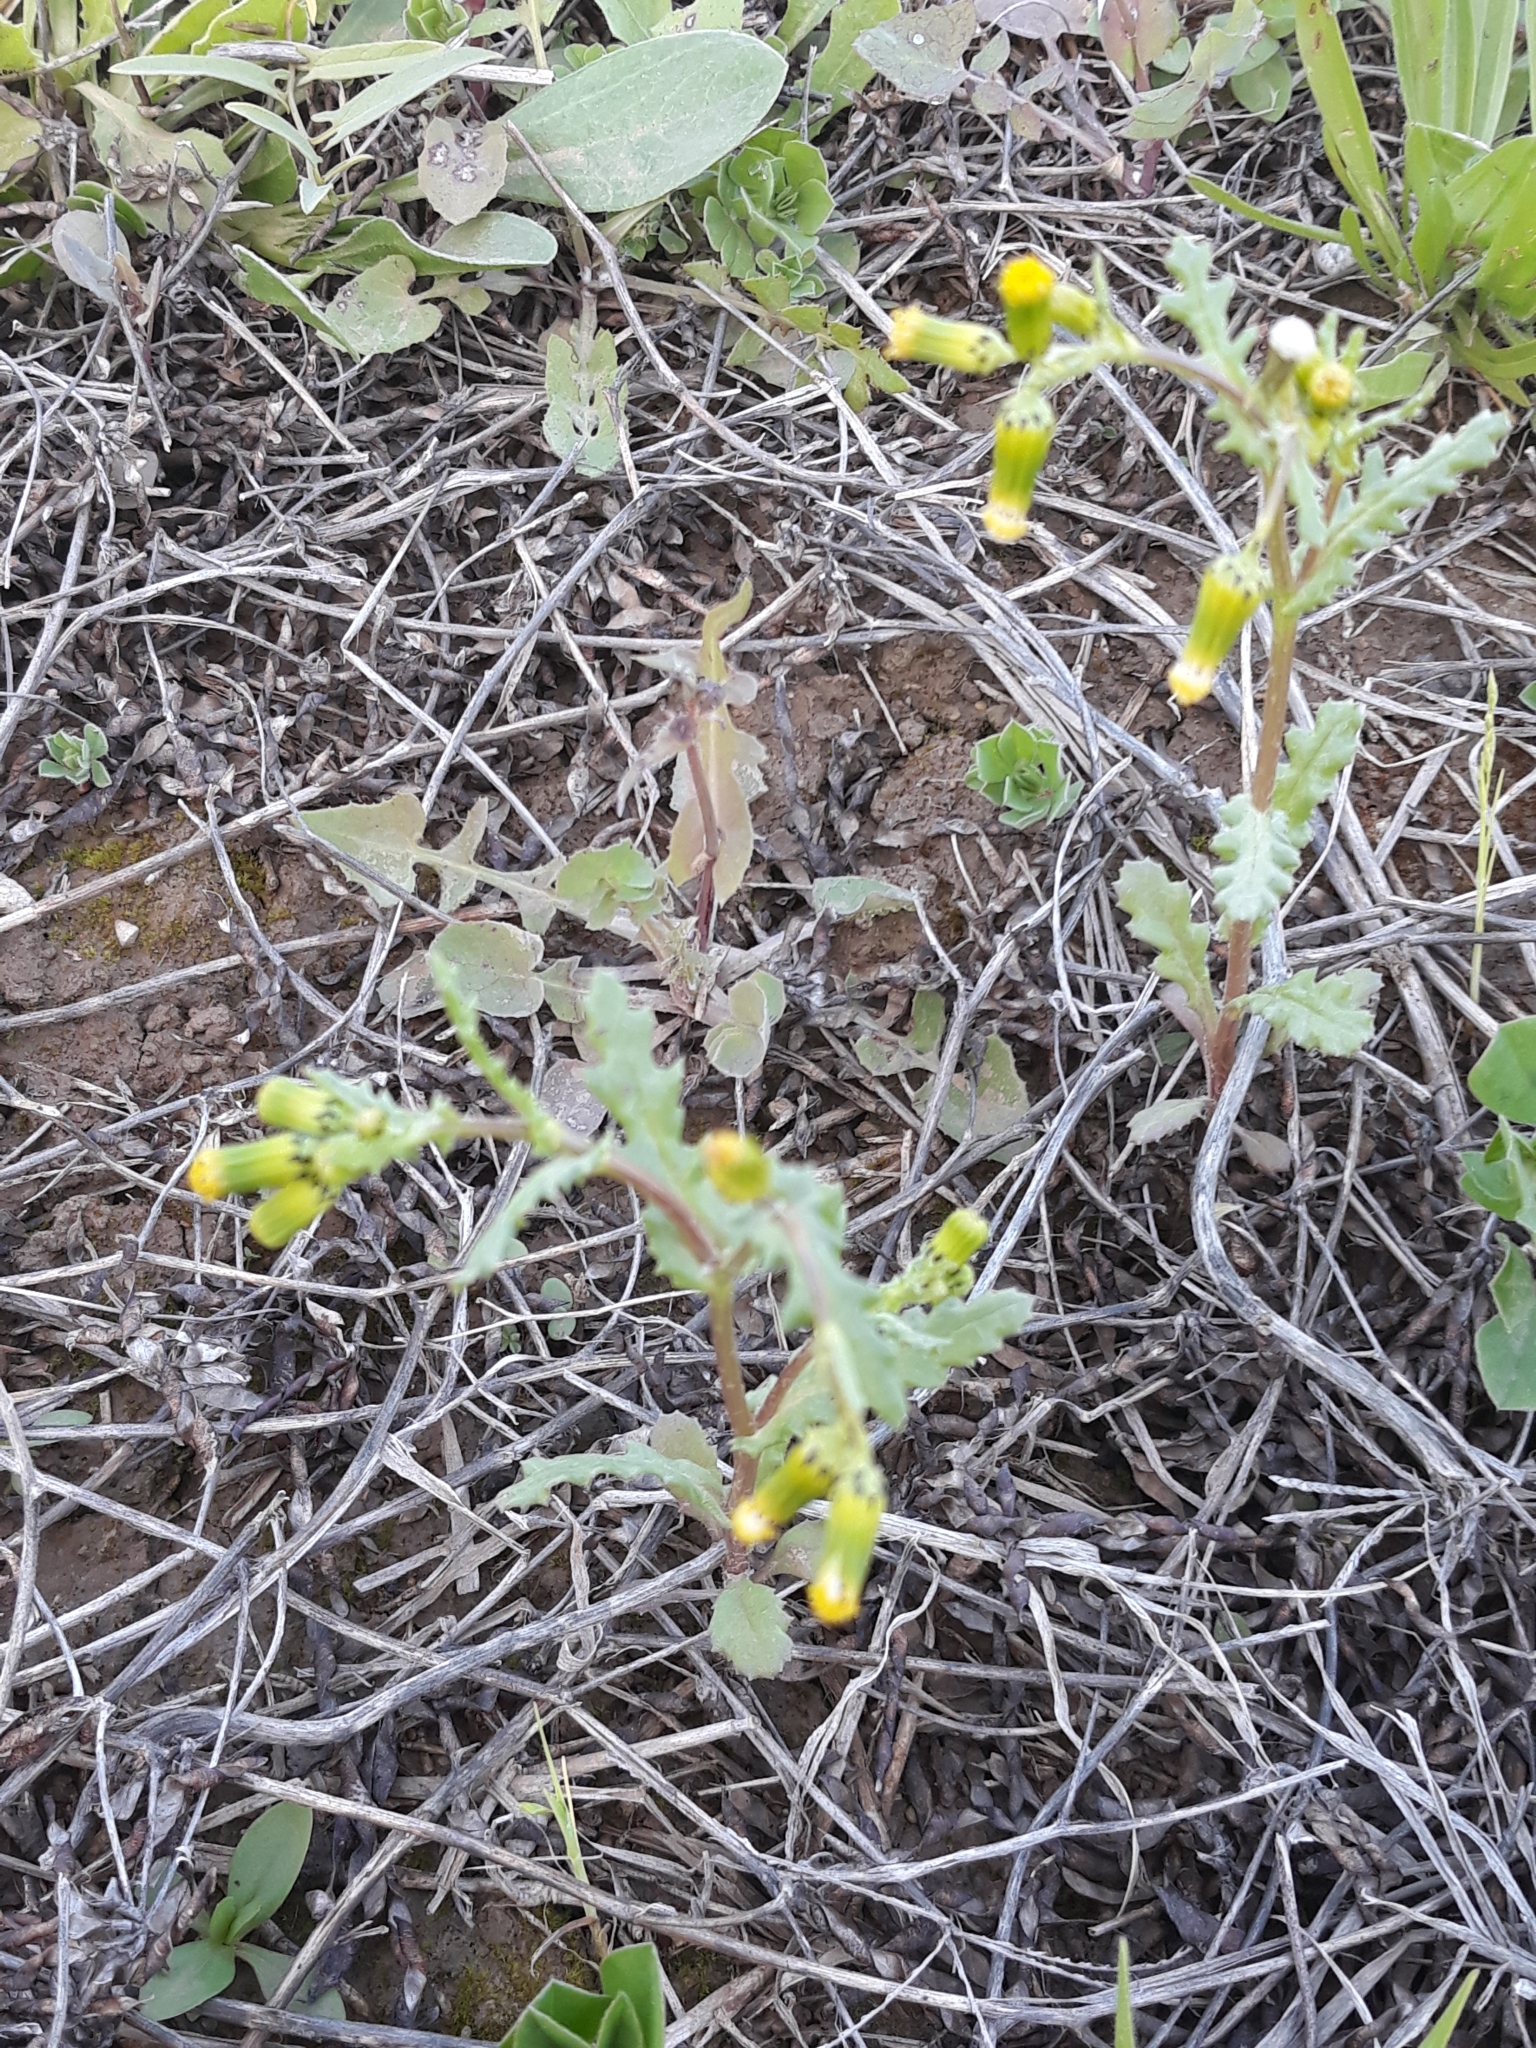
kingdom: Plantae
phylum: Tracheophyta
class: Magnoliopsida
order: Asterales
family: Asteraceae
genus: Senecio
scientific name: Senecio vulgaris
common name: Old-man-in-the-spring
